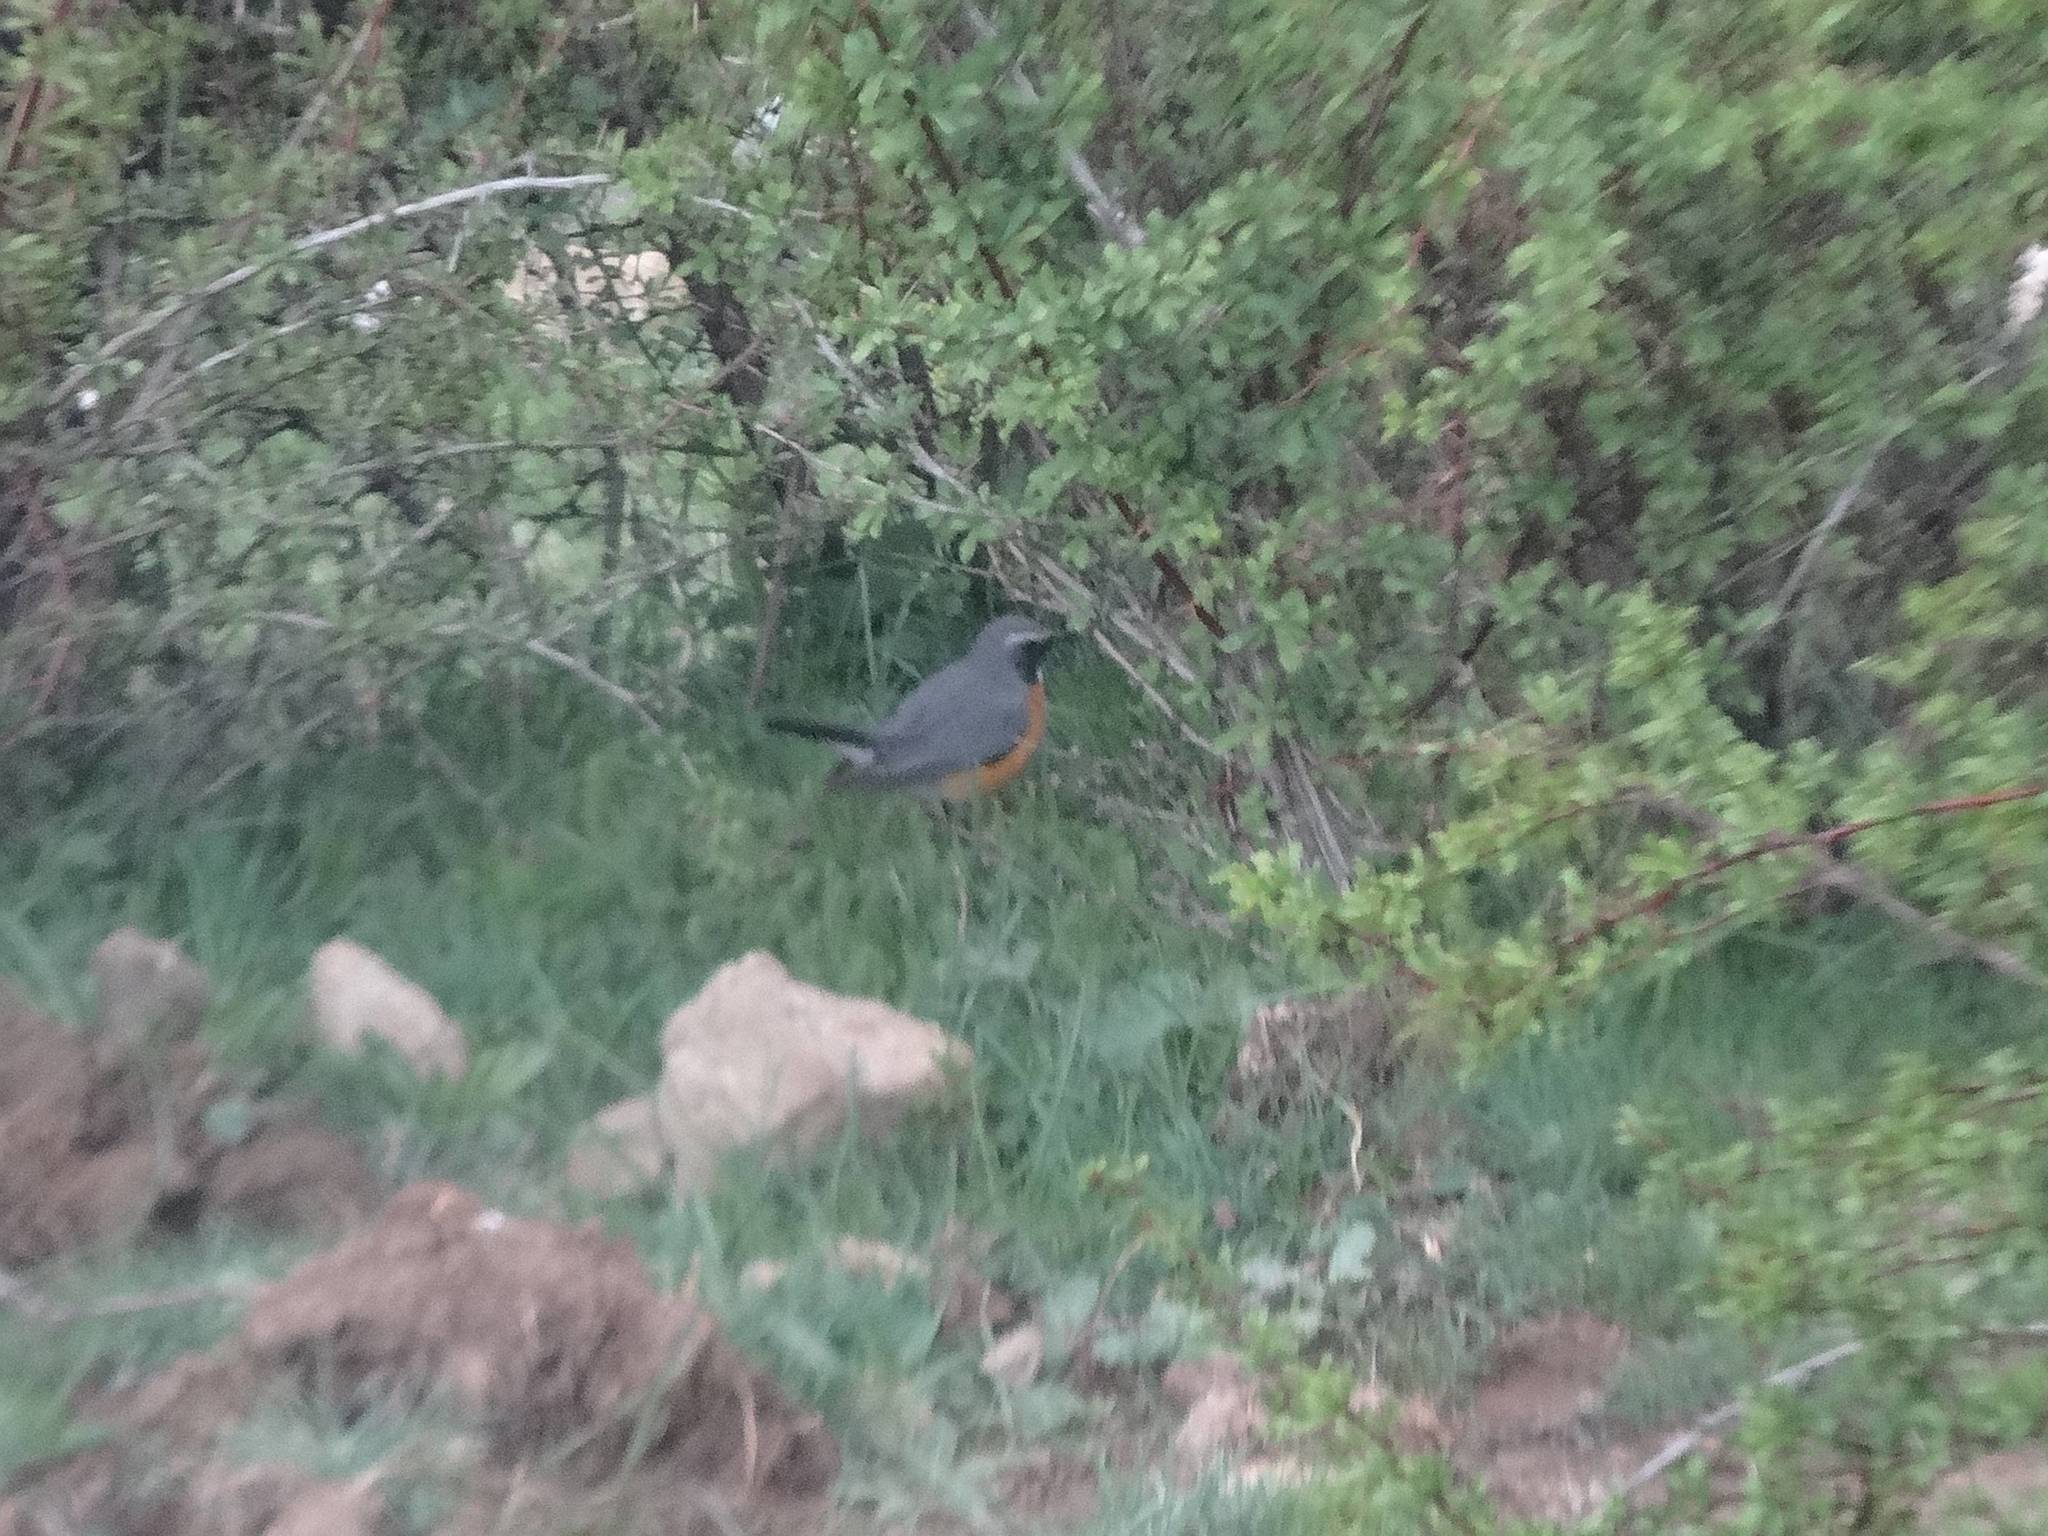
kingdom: Animalia
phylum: Chordata
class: Aves
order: Passeriformes
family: Muscicapidae
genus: Irania
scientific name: Irania gutturalis
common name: White-throated robin
